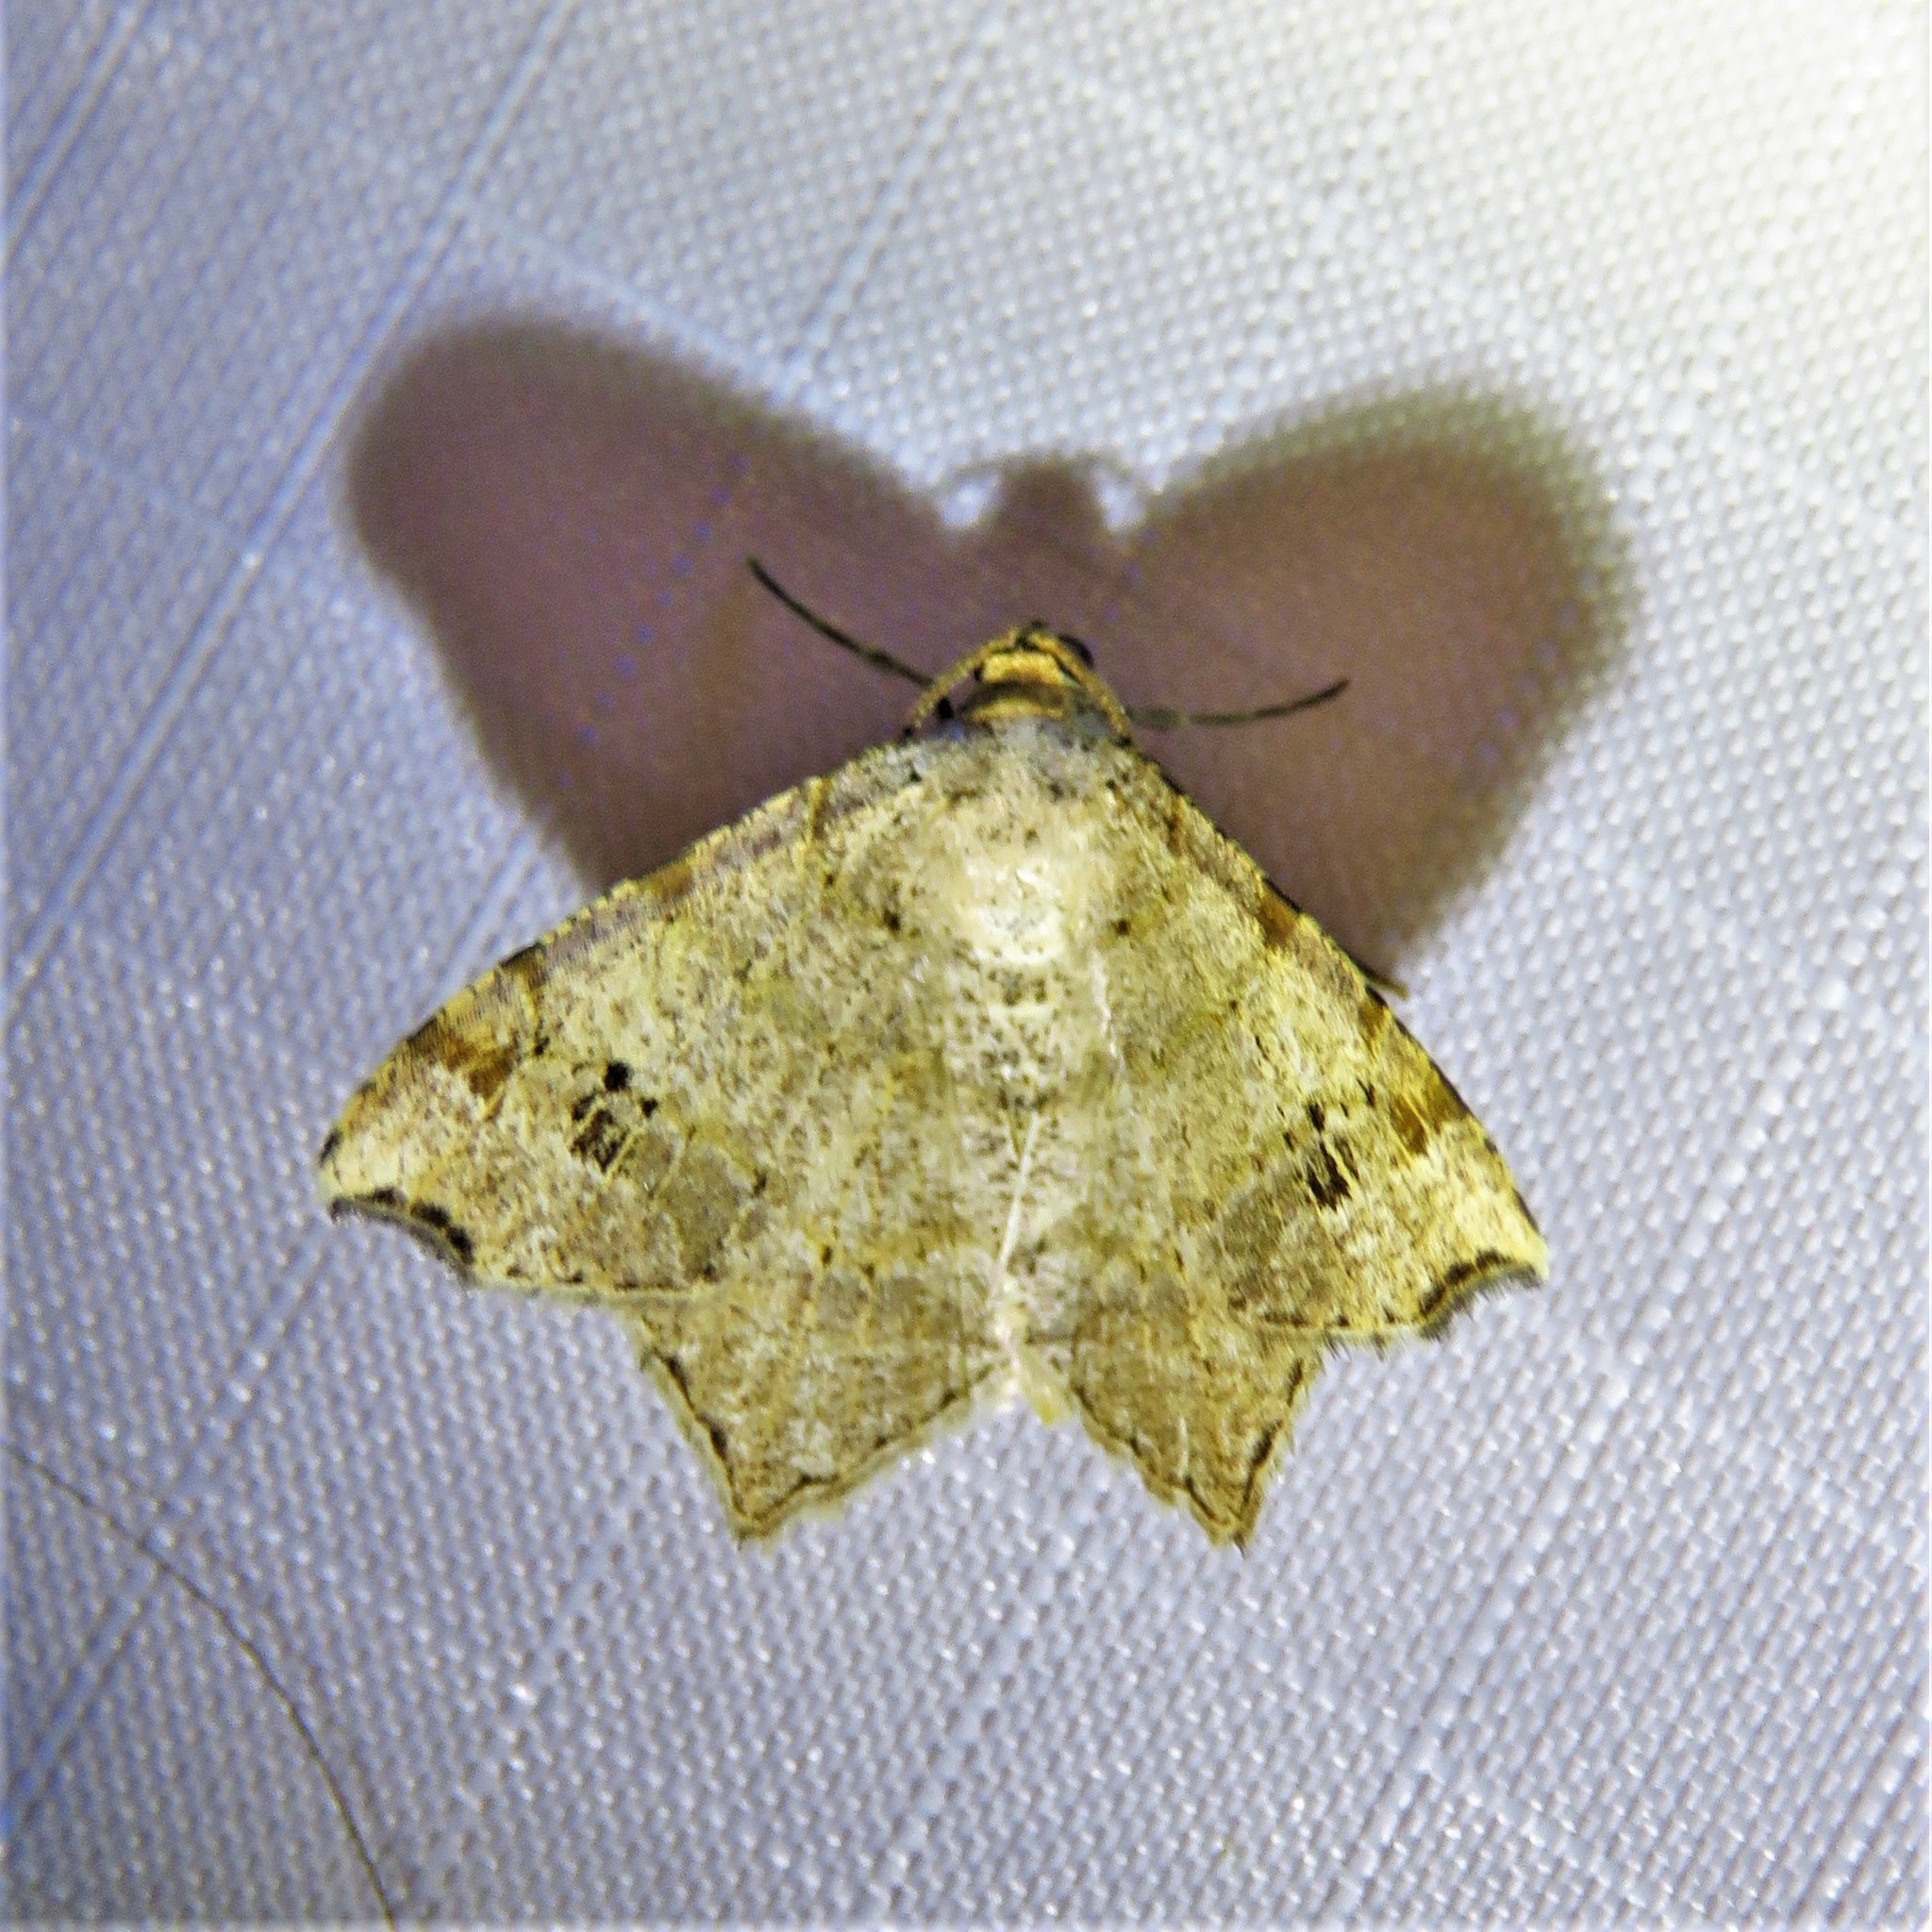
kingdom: Animalia
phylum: Arthropoda
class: Insecta
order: Lepidoptera
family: Geometridae
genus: Macaria
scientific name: Macaria aemulataria
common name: Common angle
